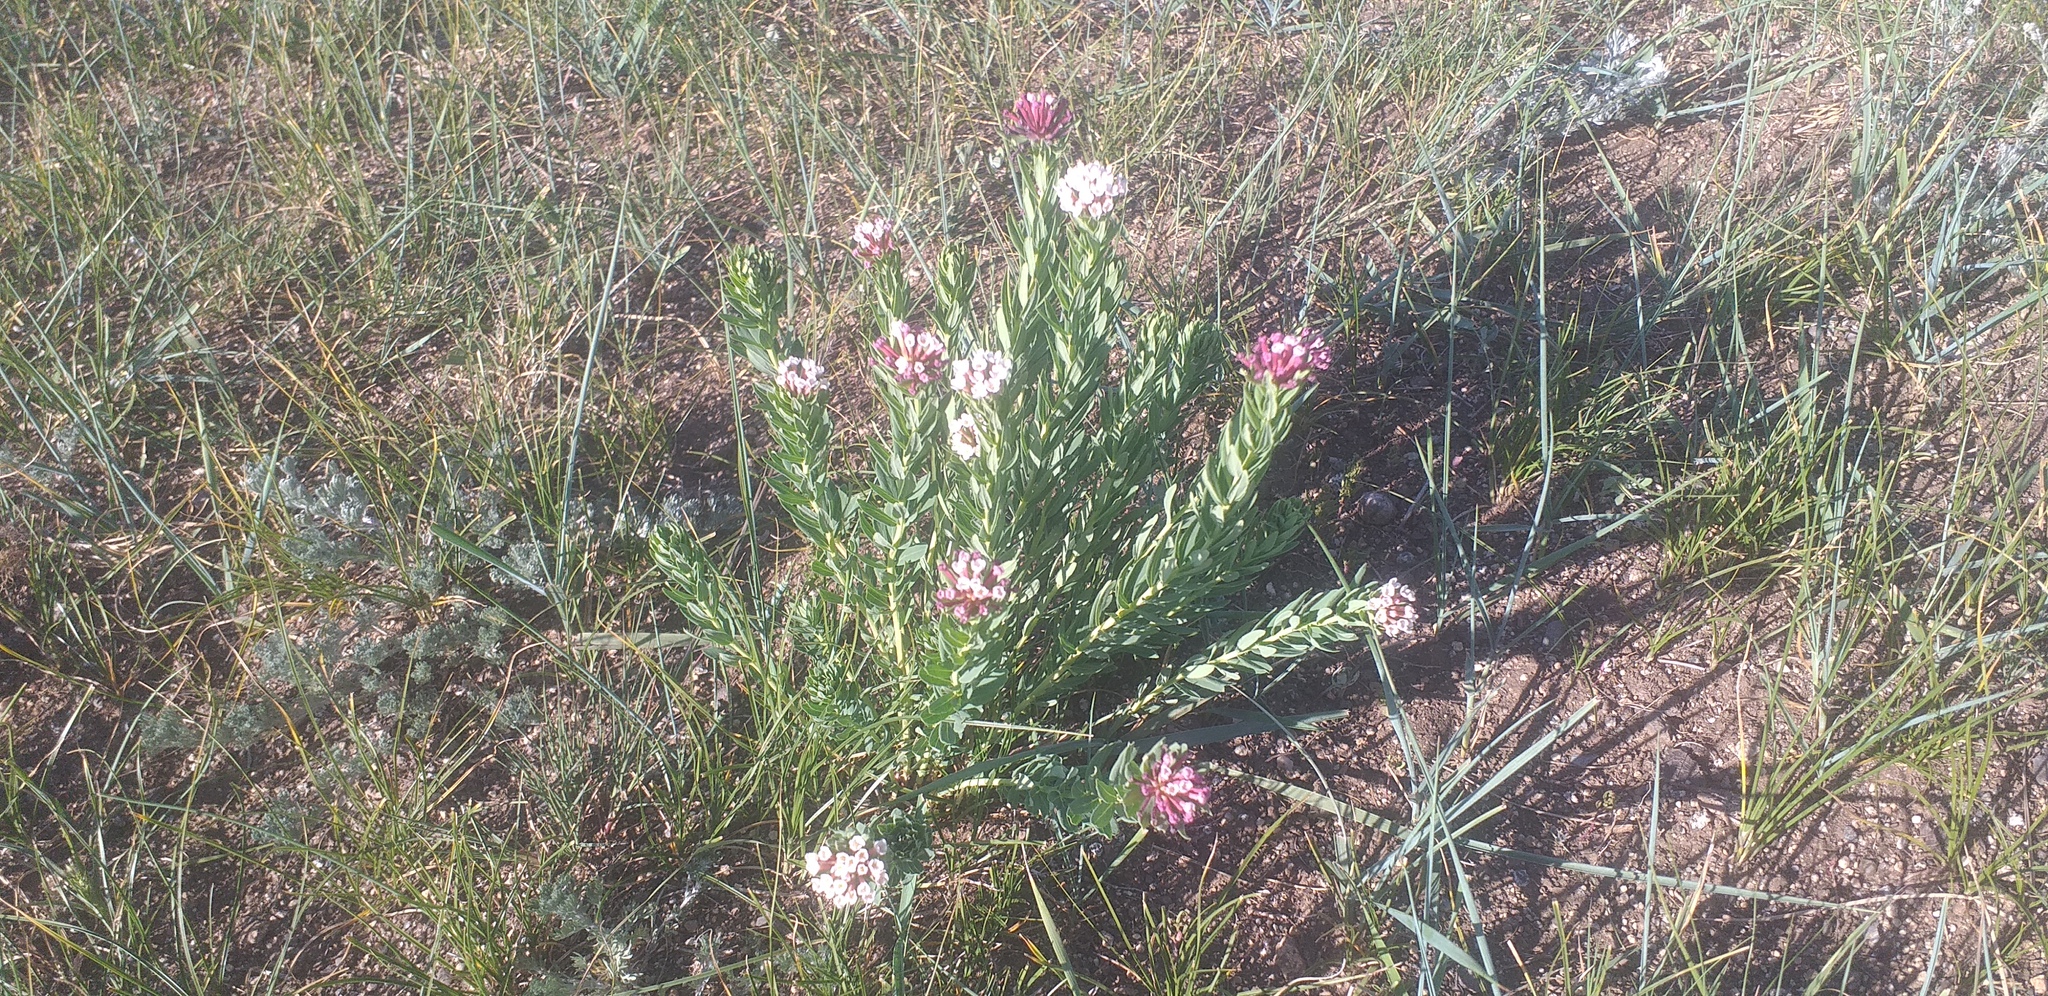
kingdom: Plantae
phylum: Tracheophyta
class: Magnoliopsida
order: Malvales
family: Thymelaeaceae
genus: Stellera
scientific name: Stellera chamaejasme
